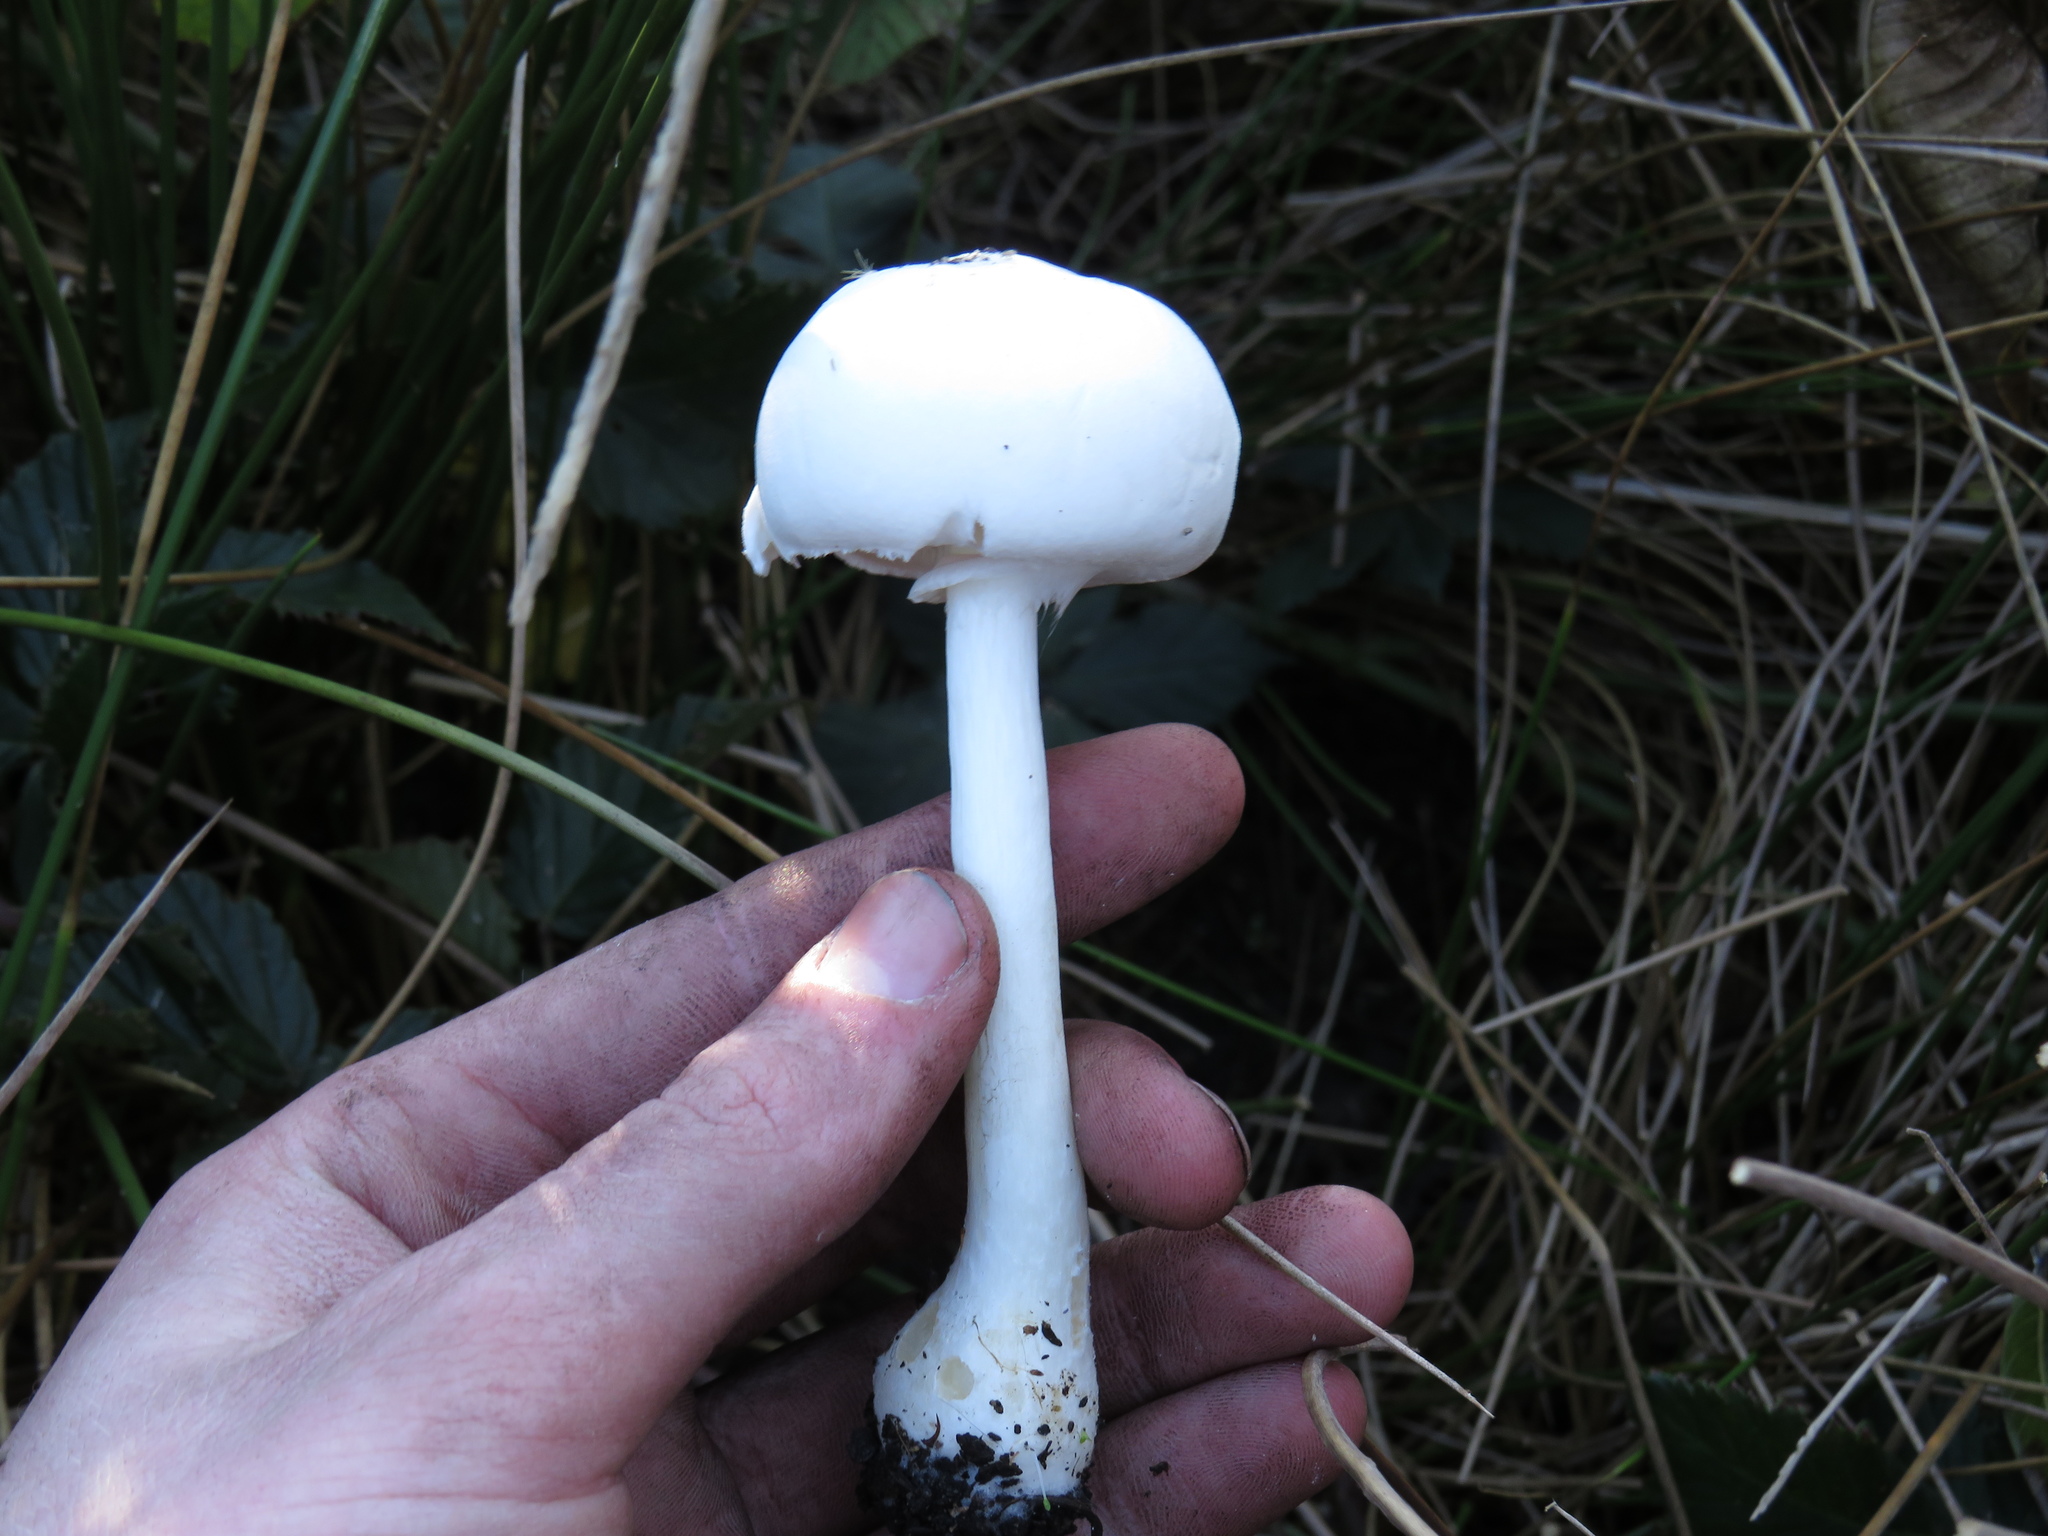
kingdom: Fungi
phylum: Basidiomycota
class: Agaricomycetes
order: Agaricales
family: Agaricaceae
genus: Leucoagaricus
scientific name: Leucoagaricus leucothites
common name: White dapperling
